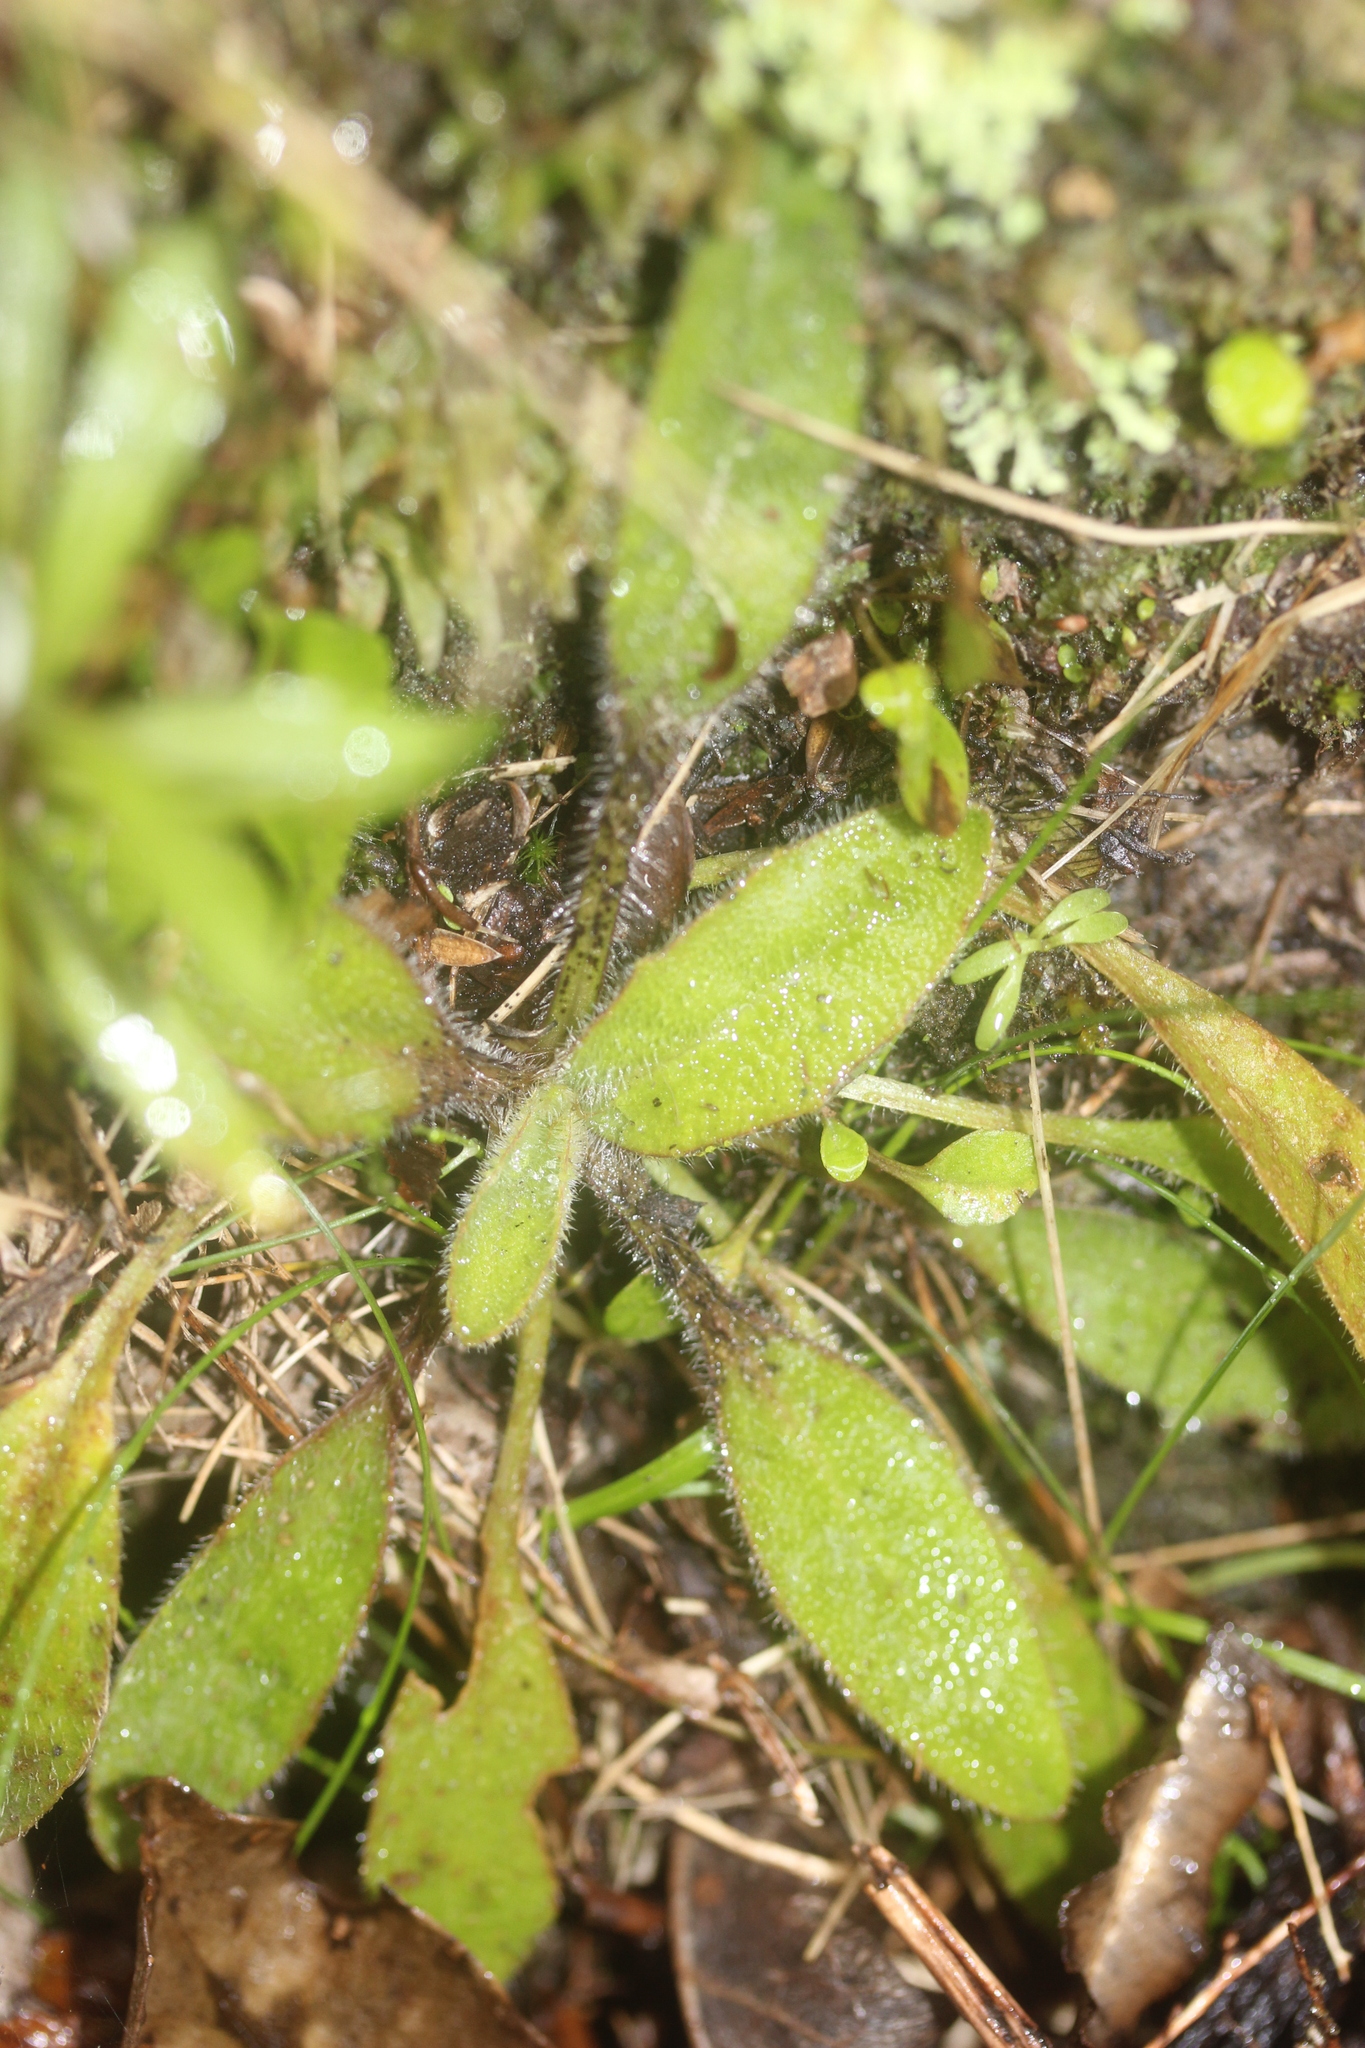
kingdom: Plantae
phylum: Tracheophyta
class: Magnoliopsida
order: Lamiales
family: Plantaginaceae
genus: Plantago
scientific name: Plantago raoulii
